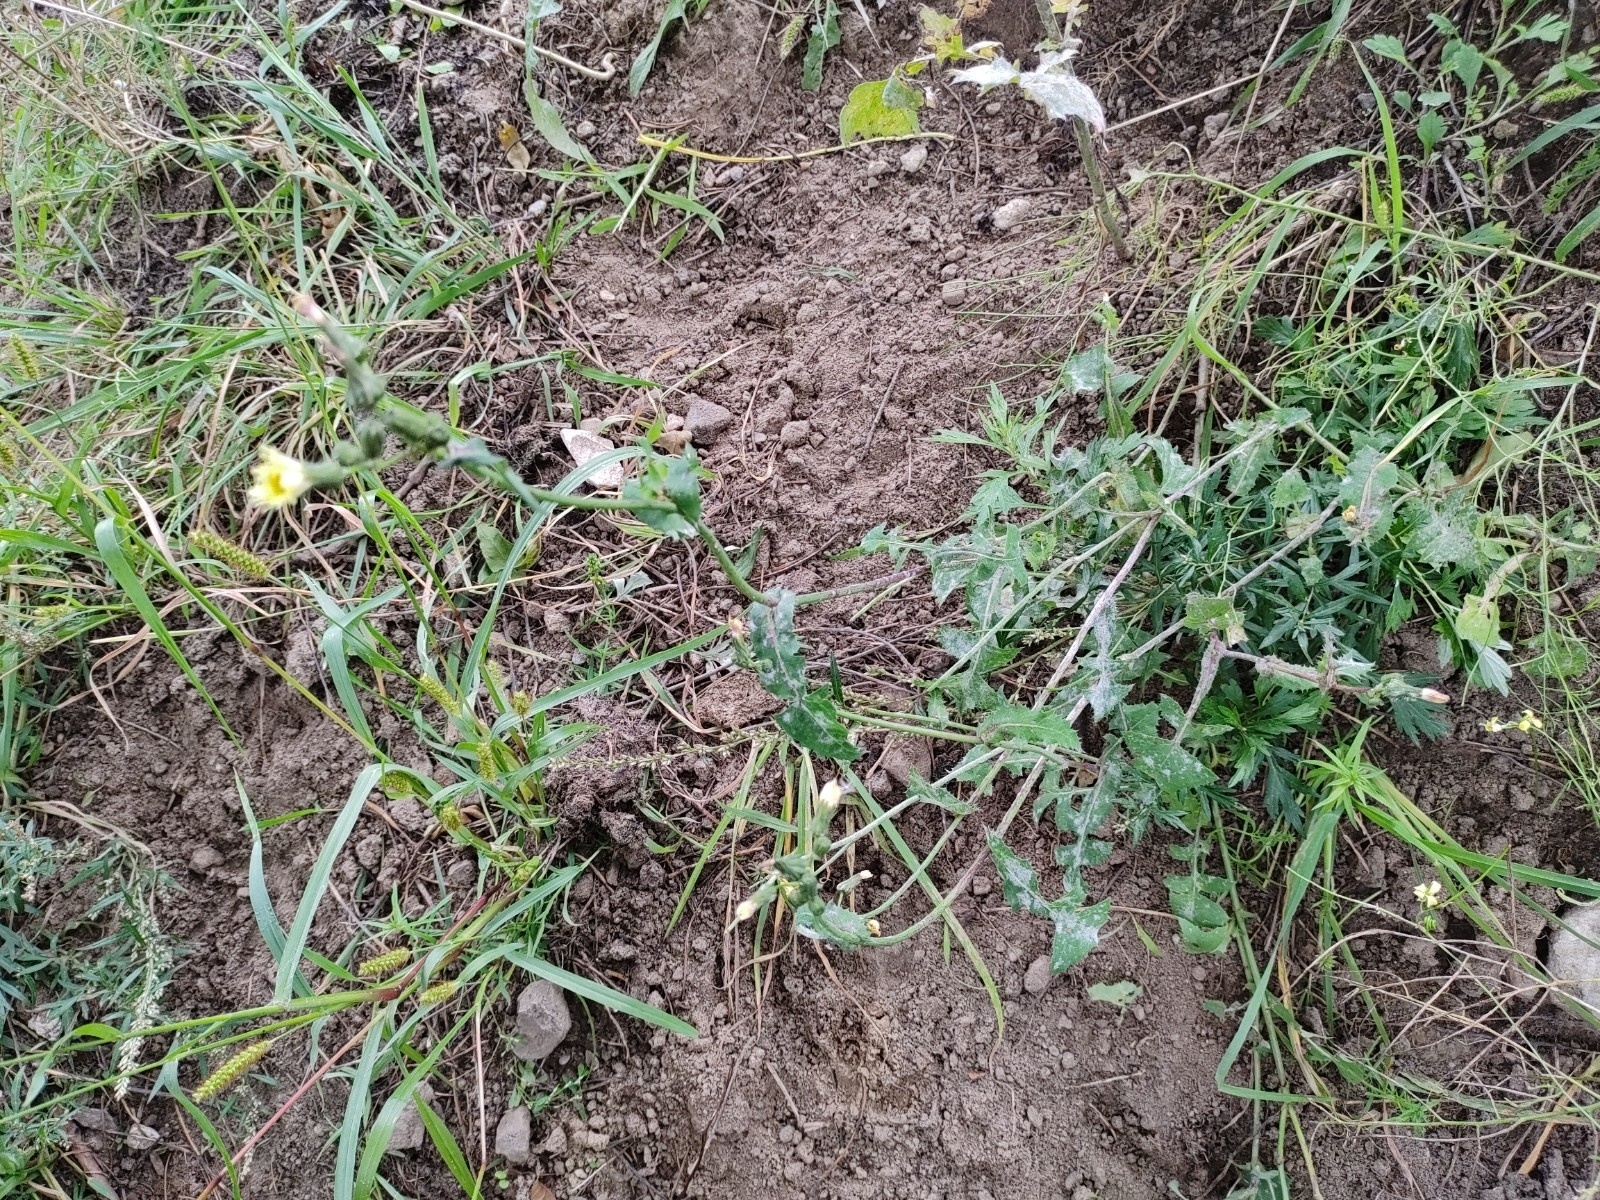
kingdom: Plantae
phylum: Tracheophyta
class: Magnoliopsida
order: Asterales
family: Asteraceae
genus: Sonchus
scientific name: Sonchus oleraceus
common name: Common sowthistle
